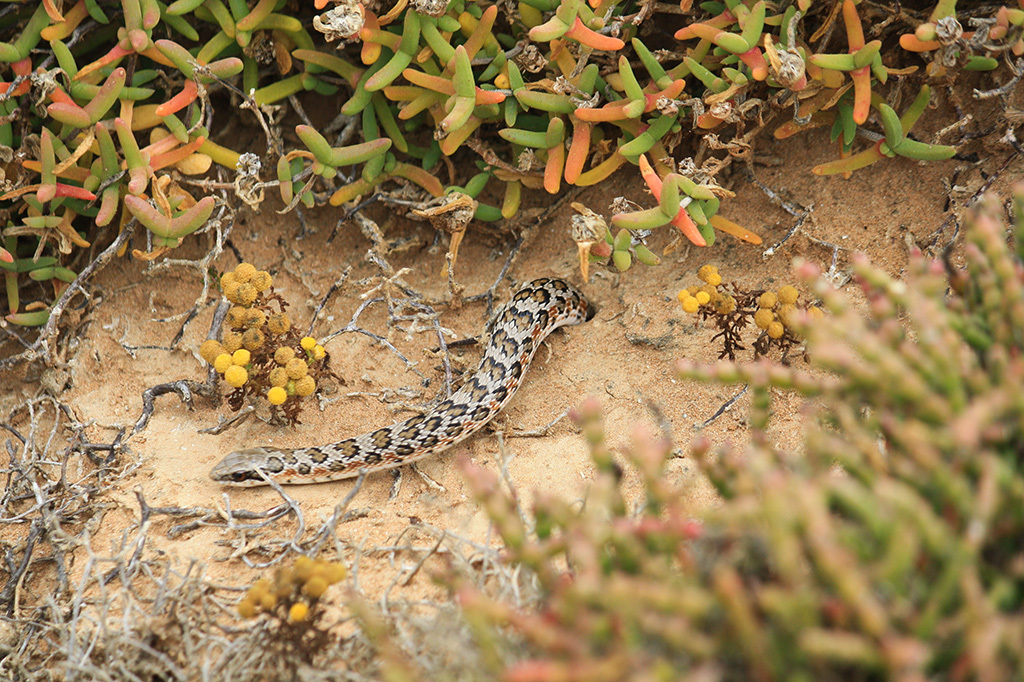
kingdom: Animalia
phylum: Chordata
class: Squamata
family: Psammophiidae
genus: Psammophylax
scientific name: Psammophylax rhombeatus
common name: Rhombic skaapsteker
